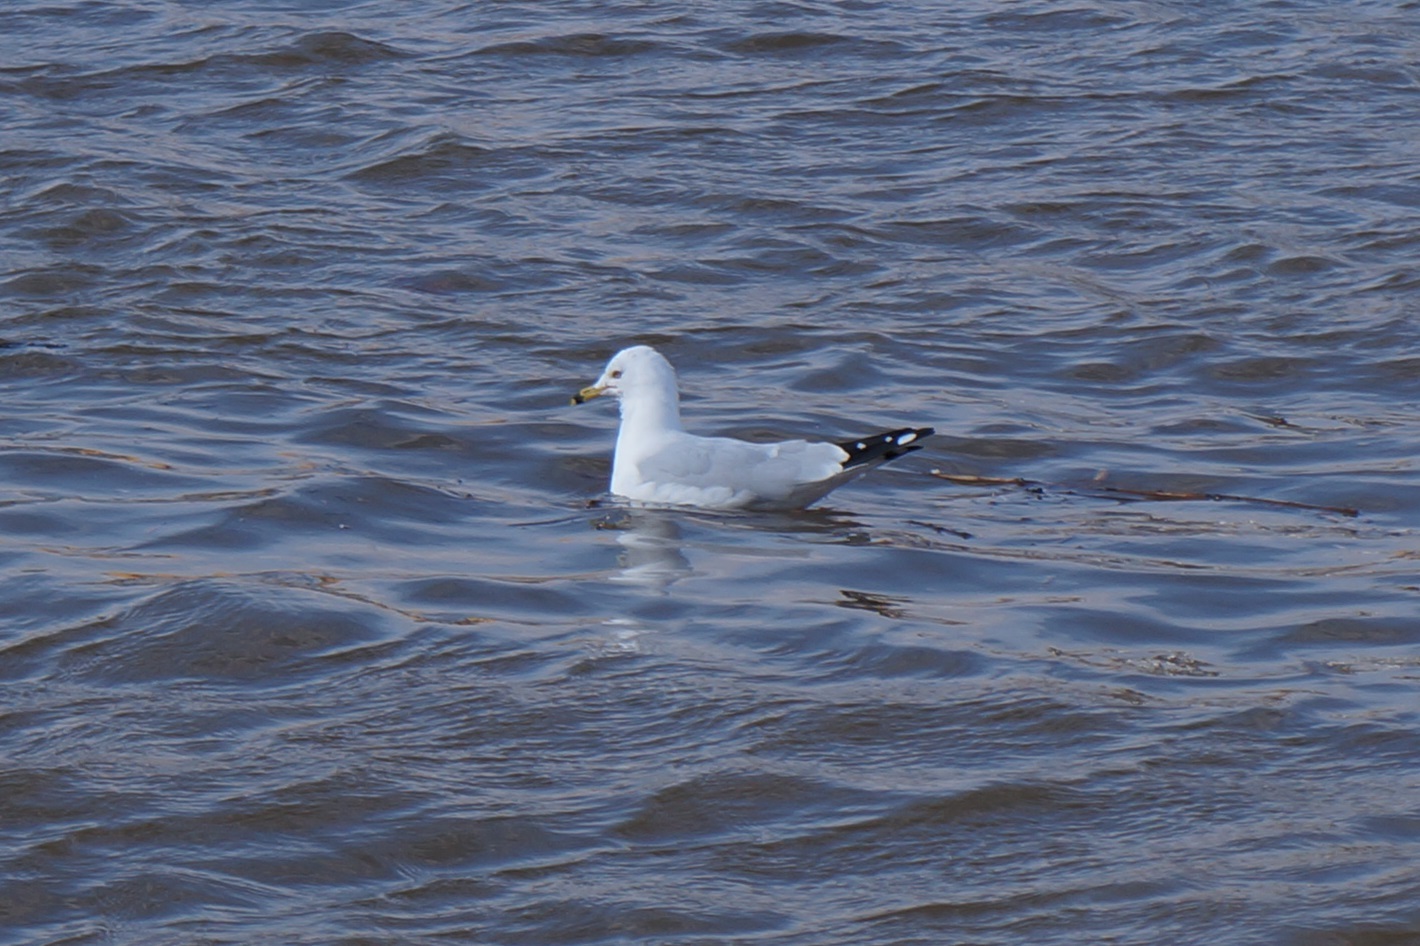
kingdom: Animalia
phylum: Chordata
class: Aves
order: Charadriiformes
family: Laridae
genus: Larus
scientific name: Larus delawarensis
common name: Ring-billed gull
